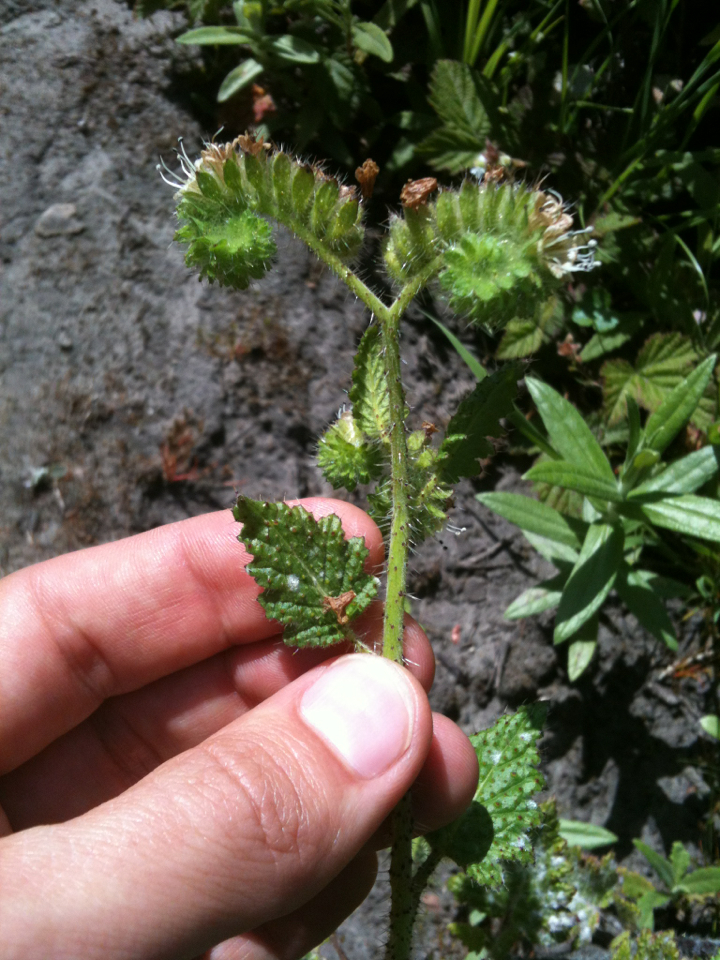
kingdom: Plantae
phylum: Tracheophyta
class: Magnoliopsida
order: Boraginales
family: Hydrophyllaceae
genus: Phacelia
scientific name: Phacelia malvifolia
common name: Mallow-leaf phacelia
